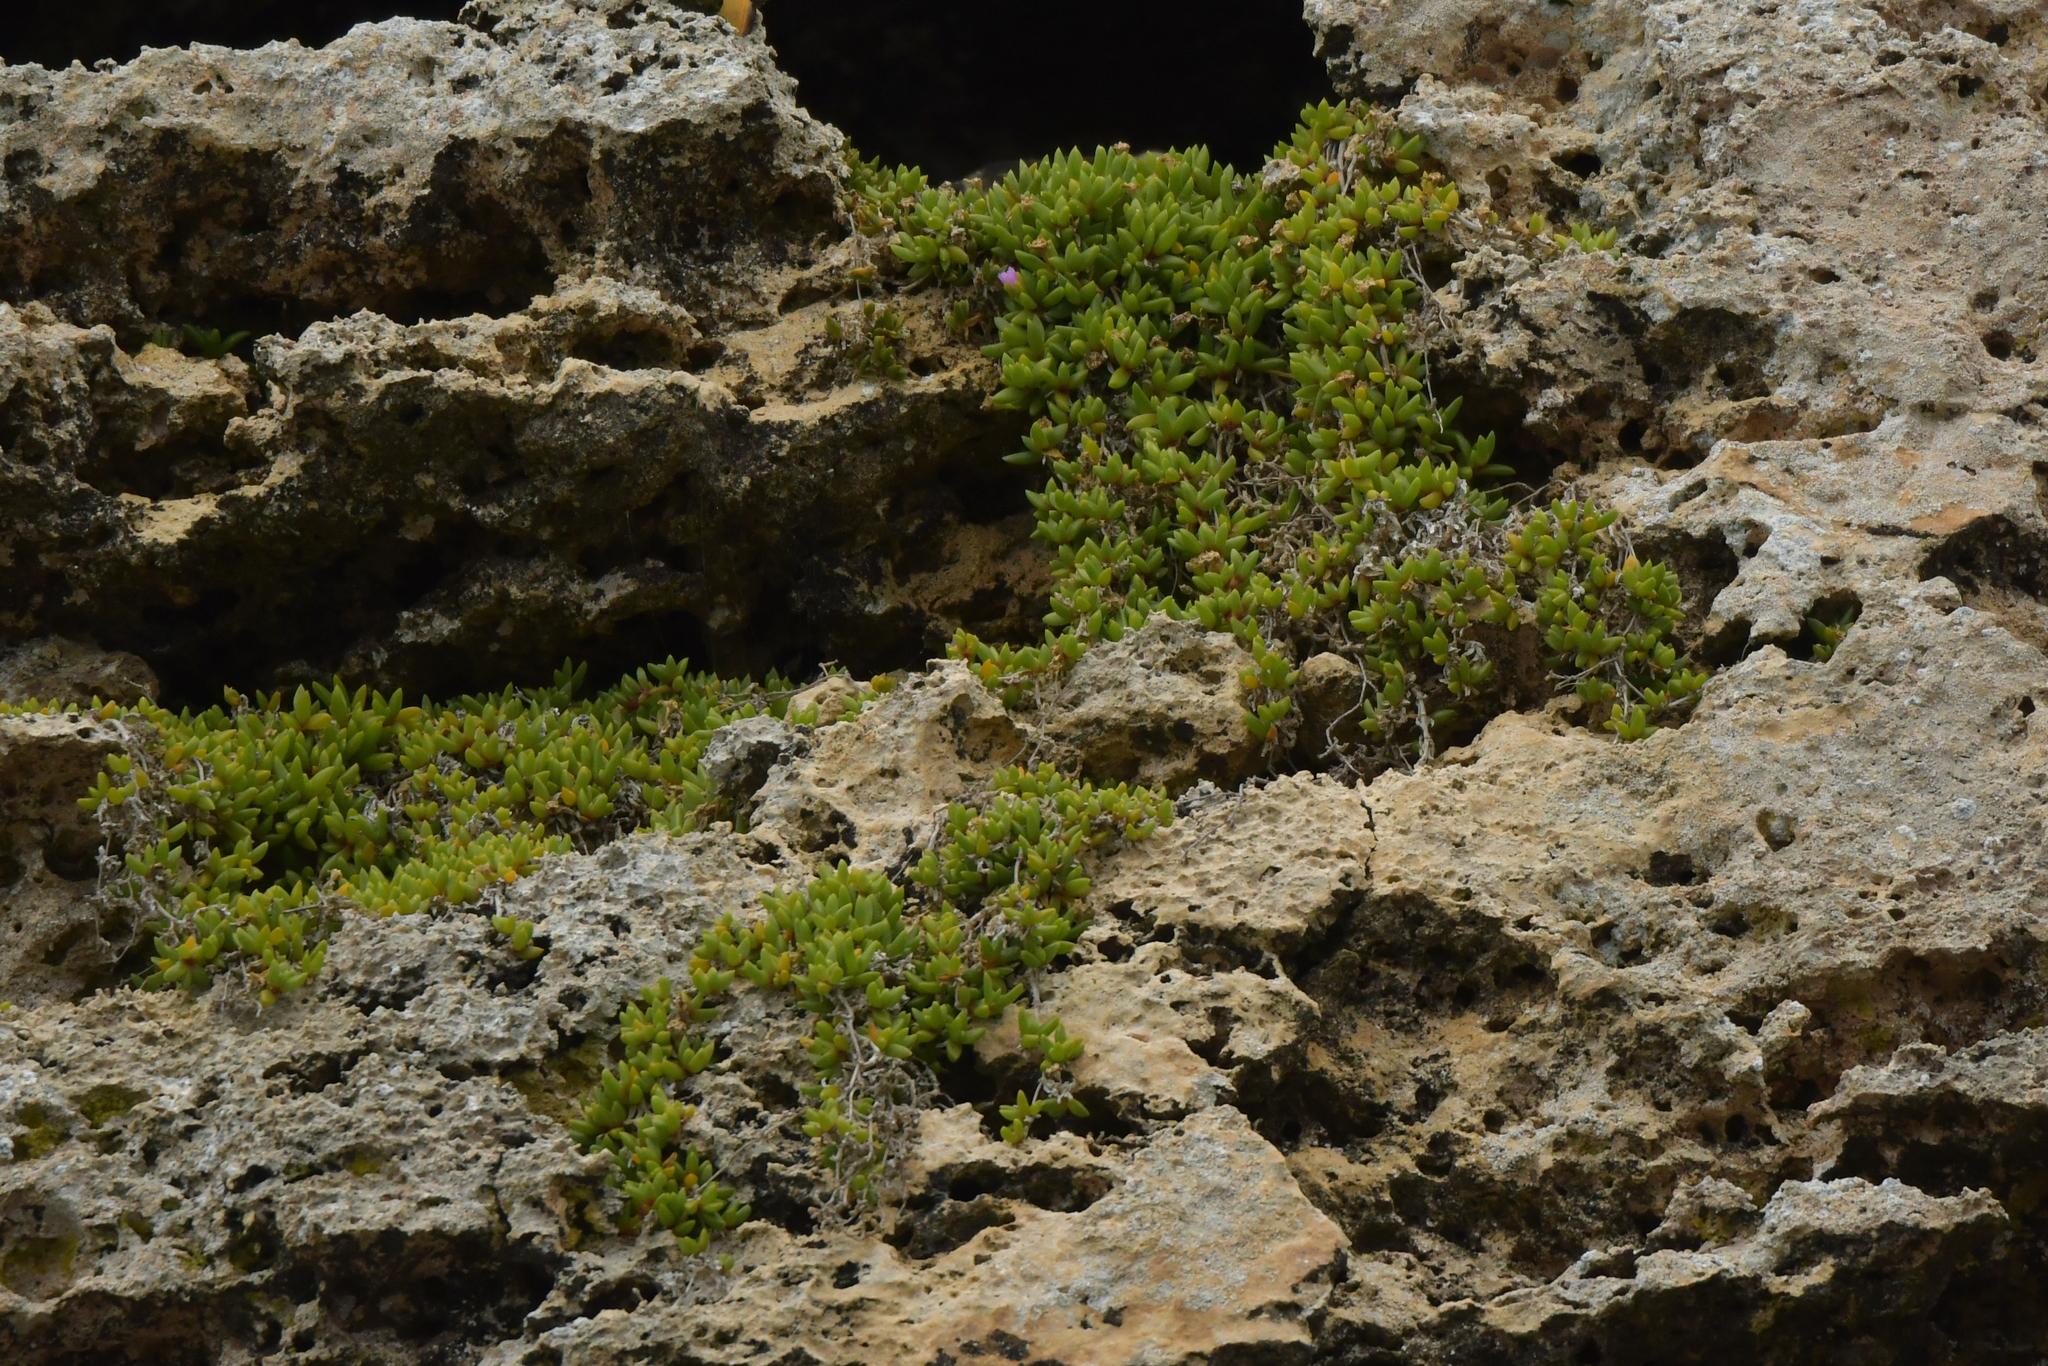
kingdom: Plantae
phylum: Tracheophyta
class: Magnoliopsida
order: Caryophyllales
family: Aizoaceae
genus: Disphyma
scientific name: Disphyma papillatum
